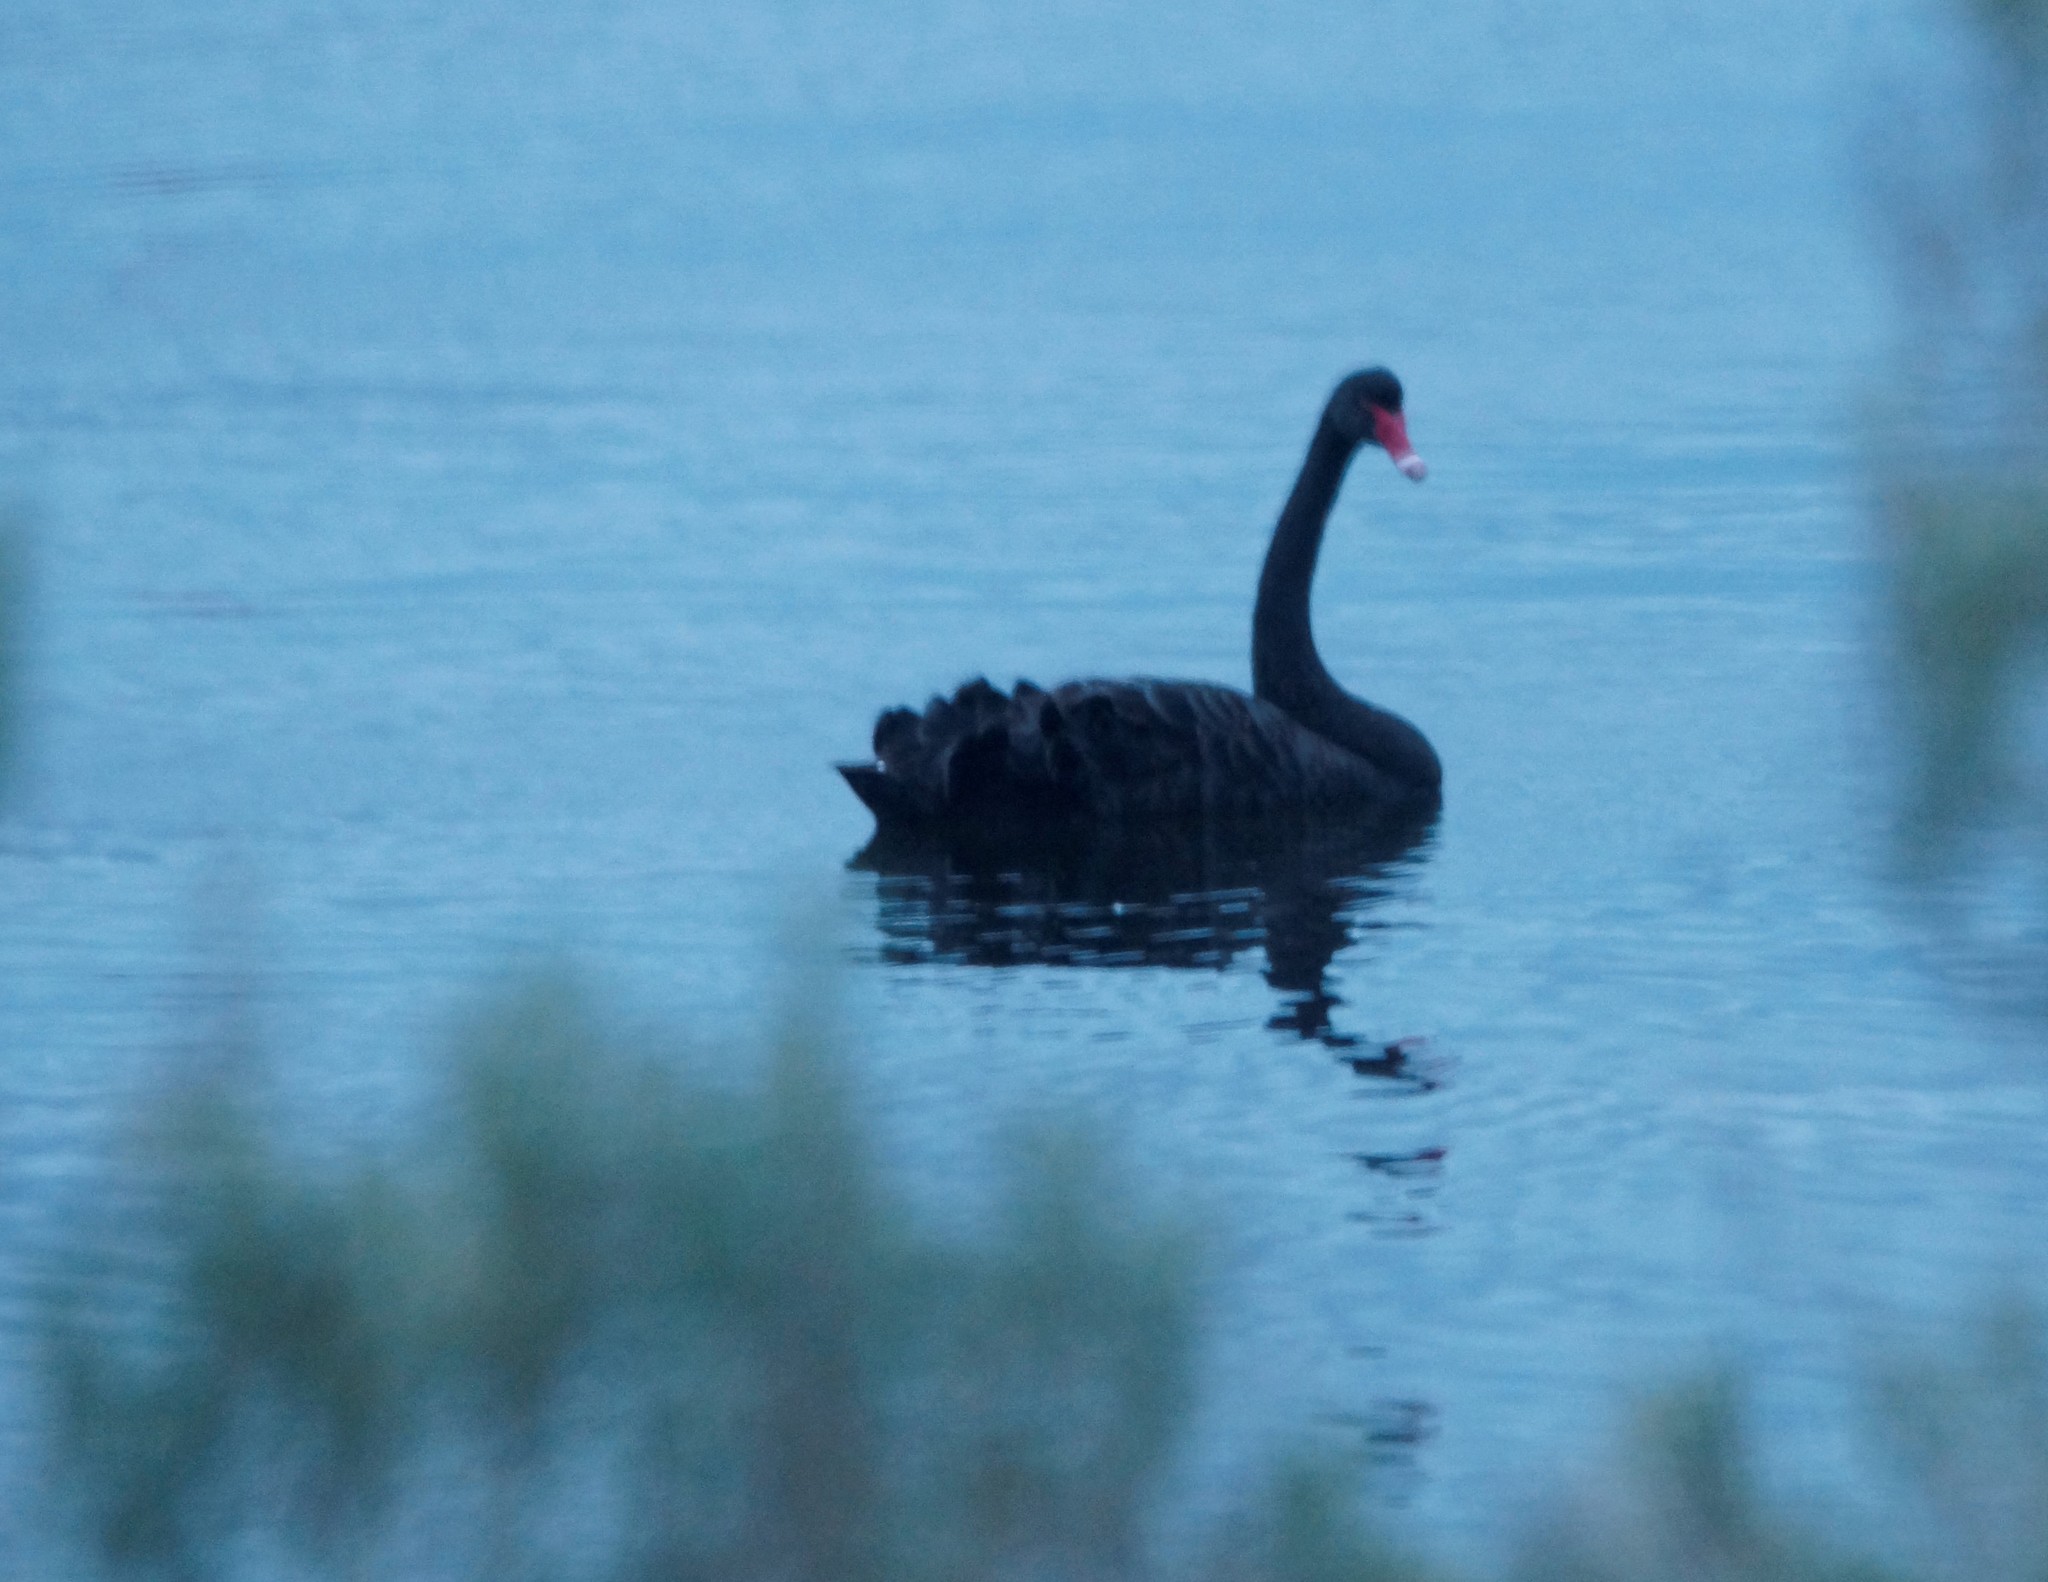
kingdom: Animalia
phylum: Chordata
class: Aves
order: Anseriformes
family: Anatidae
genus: Cygnus
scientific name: Cygnus atratus
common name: Black swan
